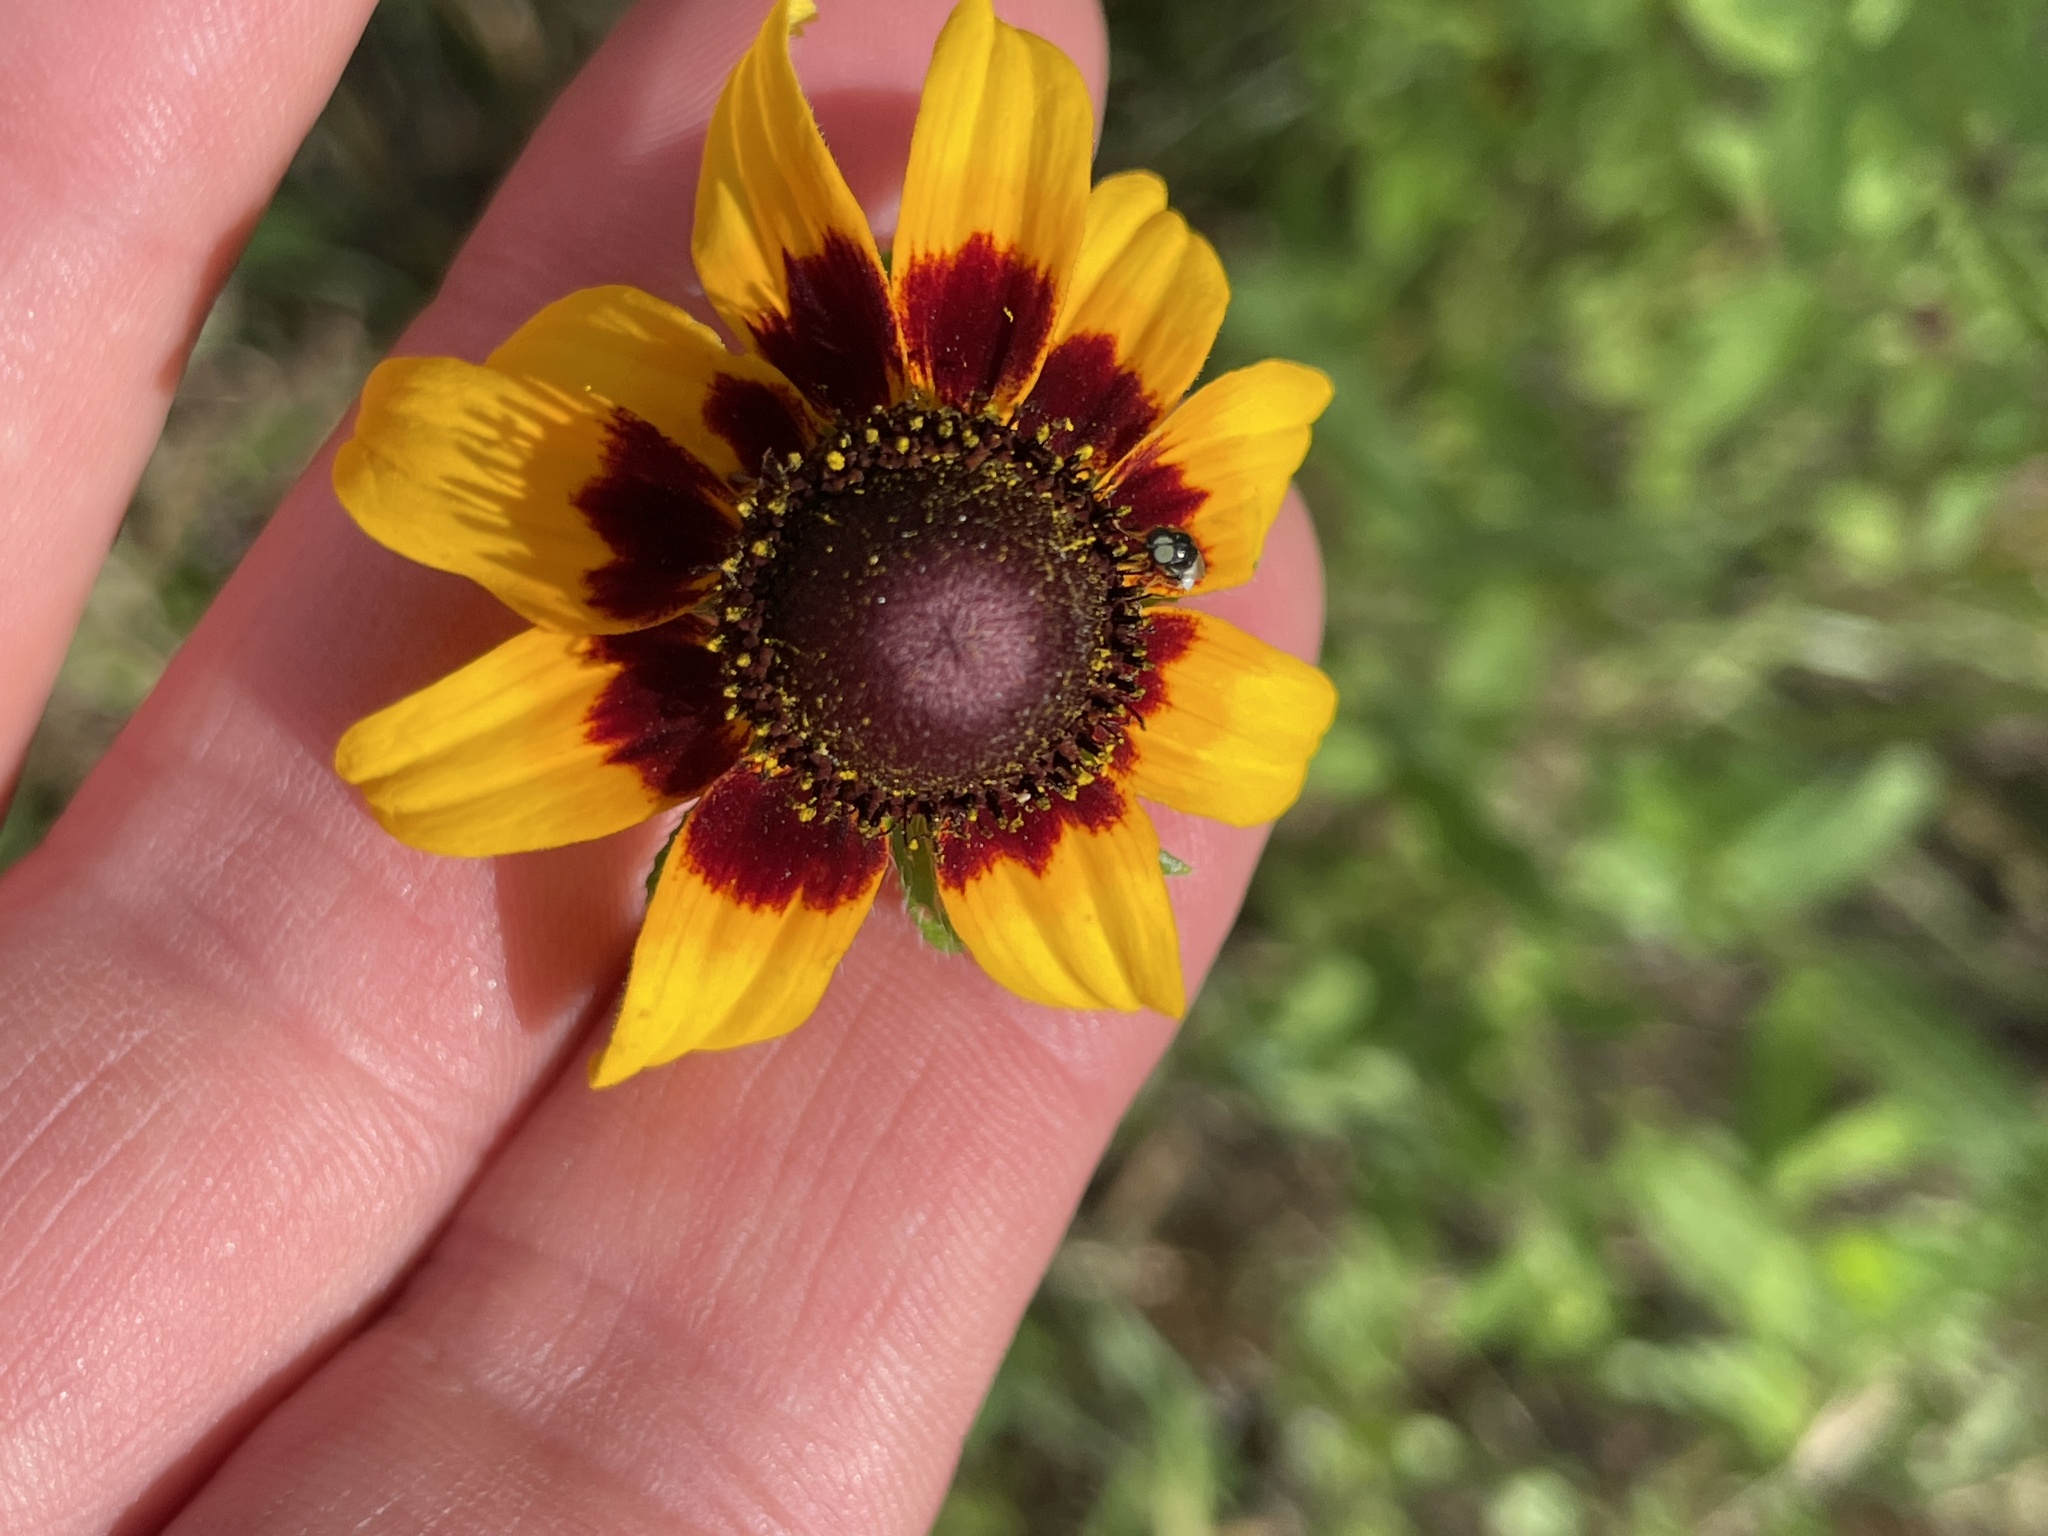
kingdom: Plantae
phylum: Tracheophyta
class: Magnoliopsida
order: Asterales
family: Asteraceae
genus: Rudbeckia
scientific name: Rudbeckia hirta
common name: Black-eyed-susan
